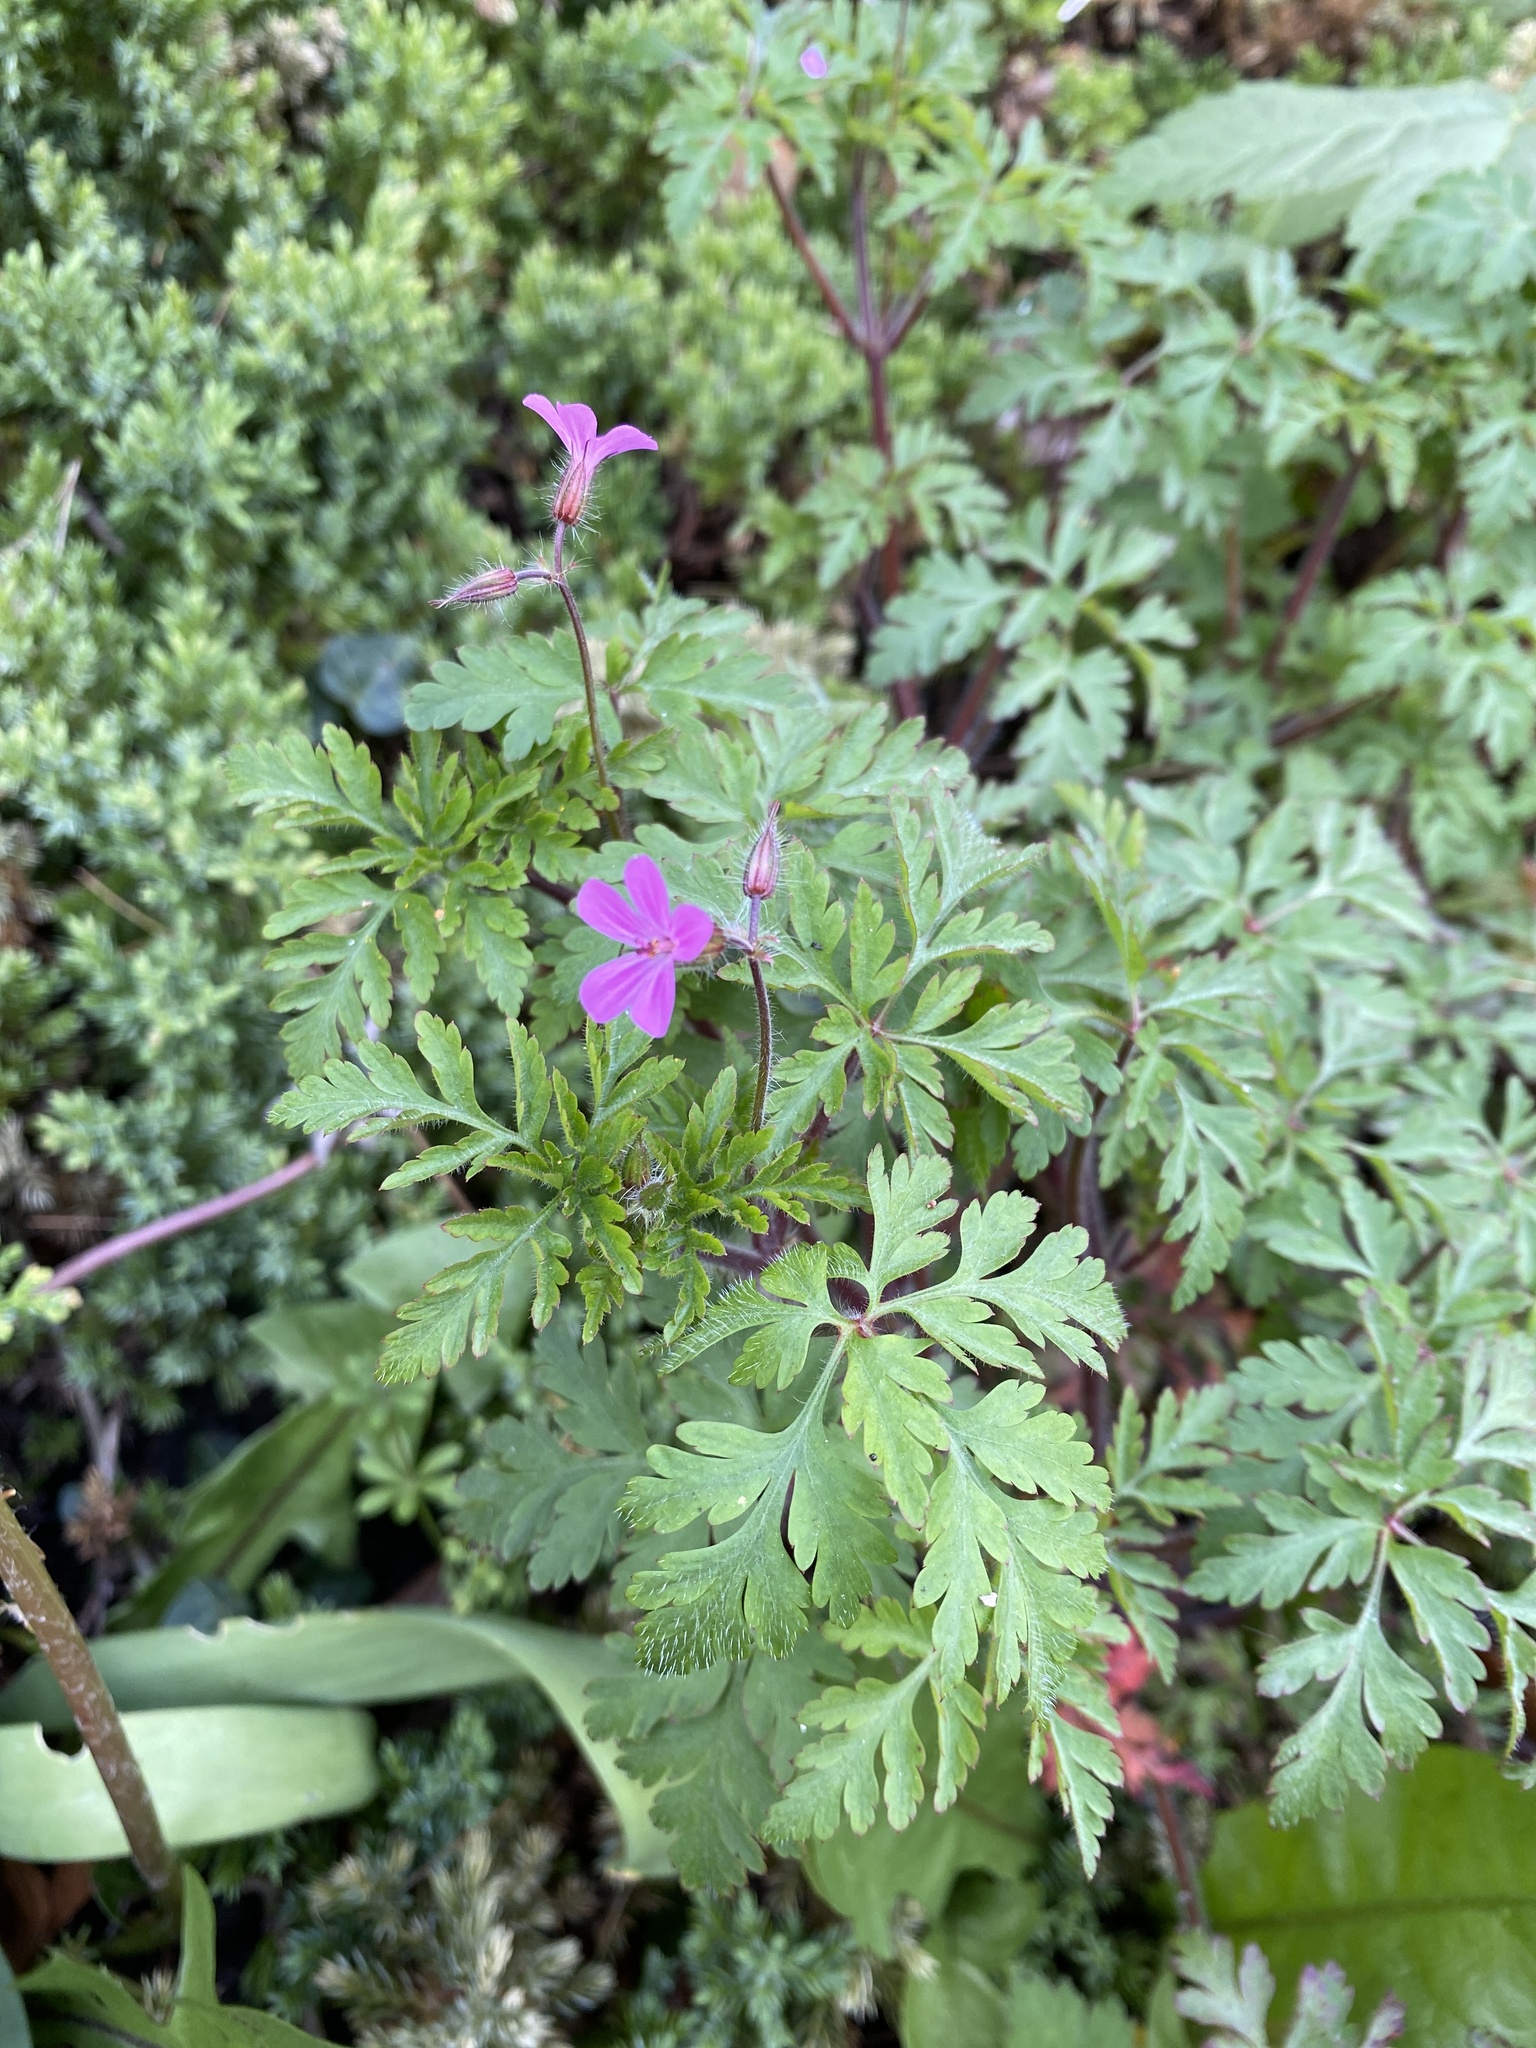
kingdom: Plantae
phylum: Tracheophyta
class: Magnoliopsida
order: Geraniales
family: Geraniaceae
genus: Geranium
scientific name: Geranium robertianum
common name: Herb-robert
